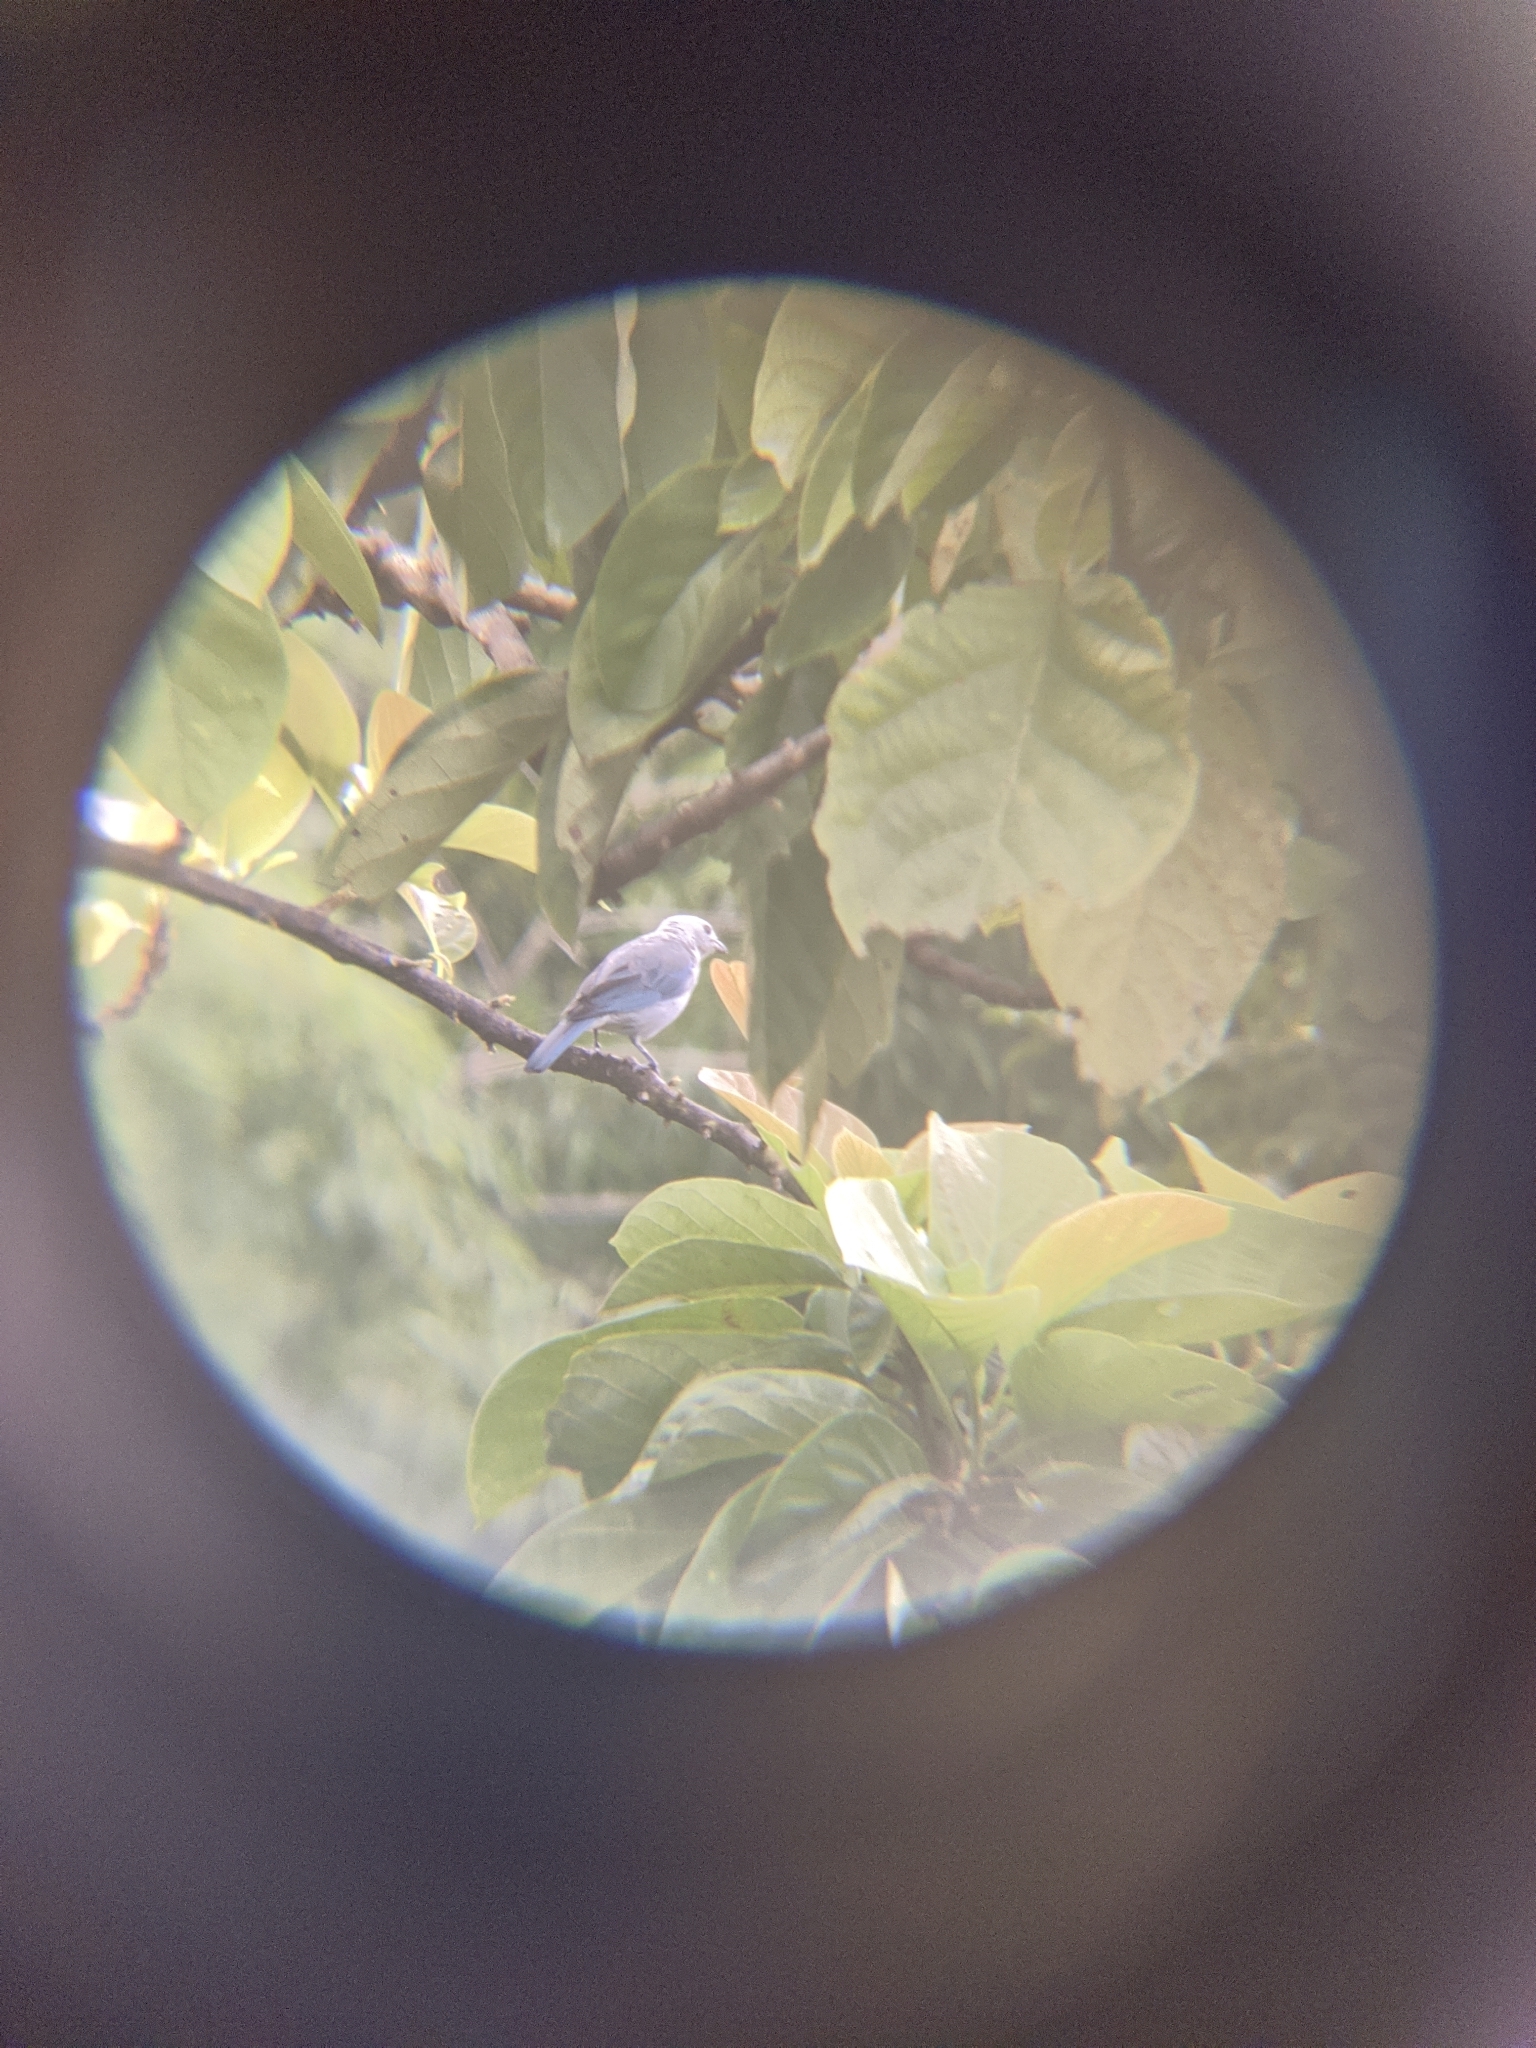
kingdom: Animalia
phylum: Chordata
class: Aves
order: Passeriformes
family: Thraupidae
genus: Thraupis
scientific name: Thraupis episcopus
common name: Blue-grey tanager
